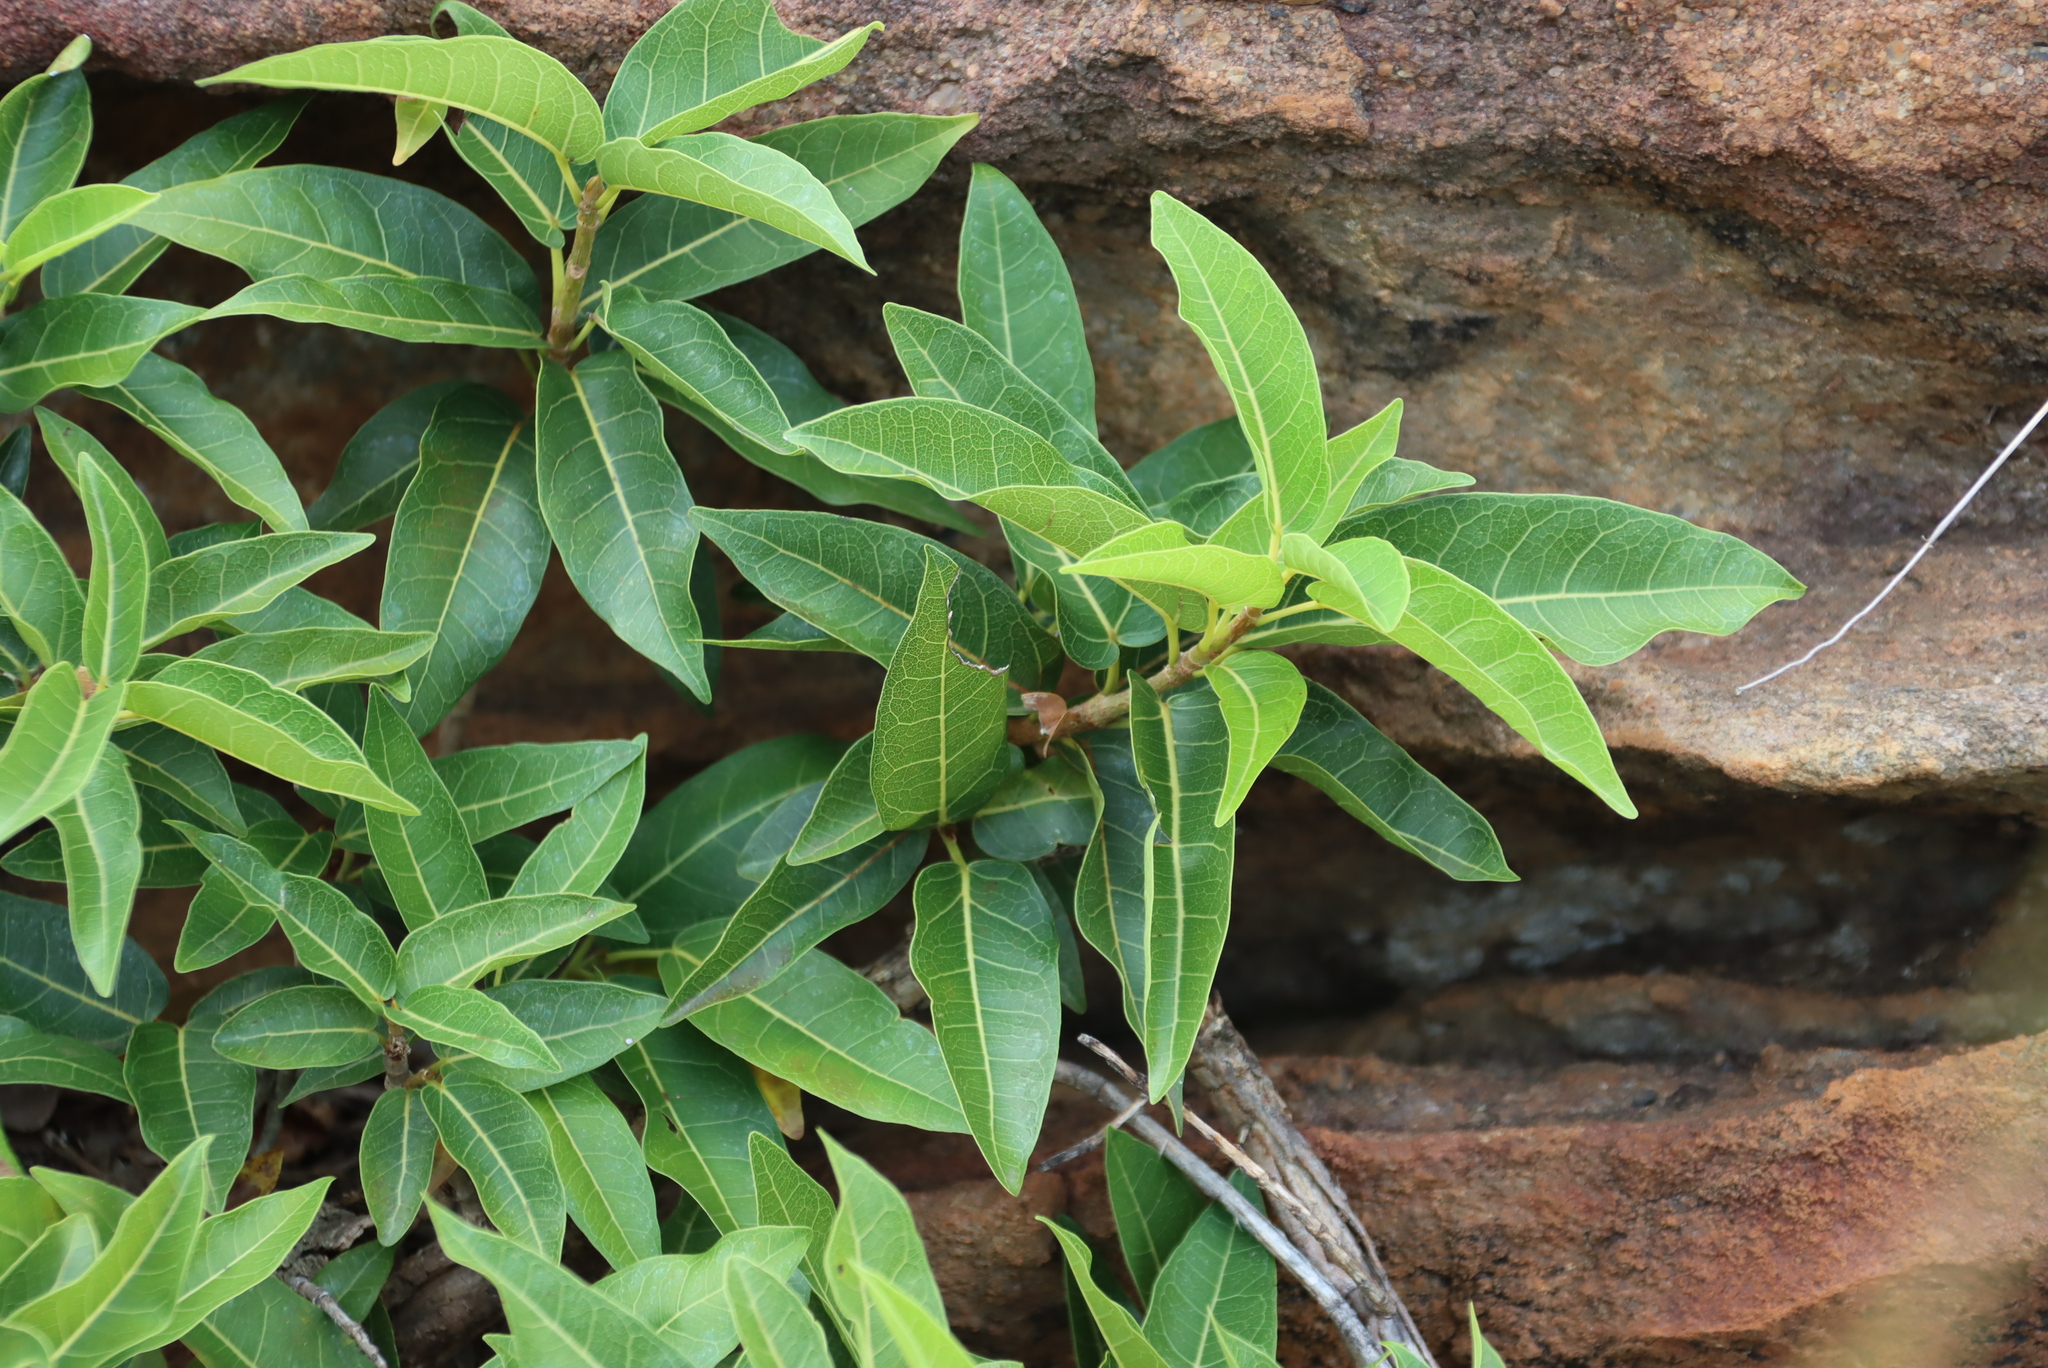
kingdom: Plantae
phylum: Tracheophyta
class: Magnoliopsida
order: Rosales
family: Moraceae
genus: Ficus
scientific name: Ficus ingens
